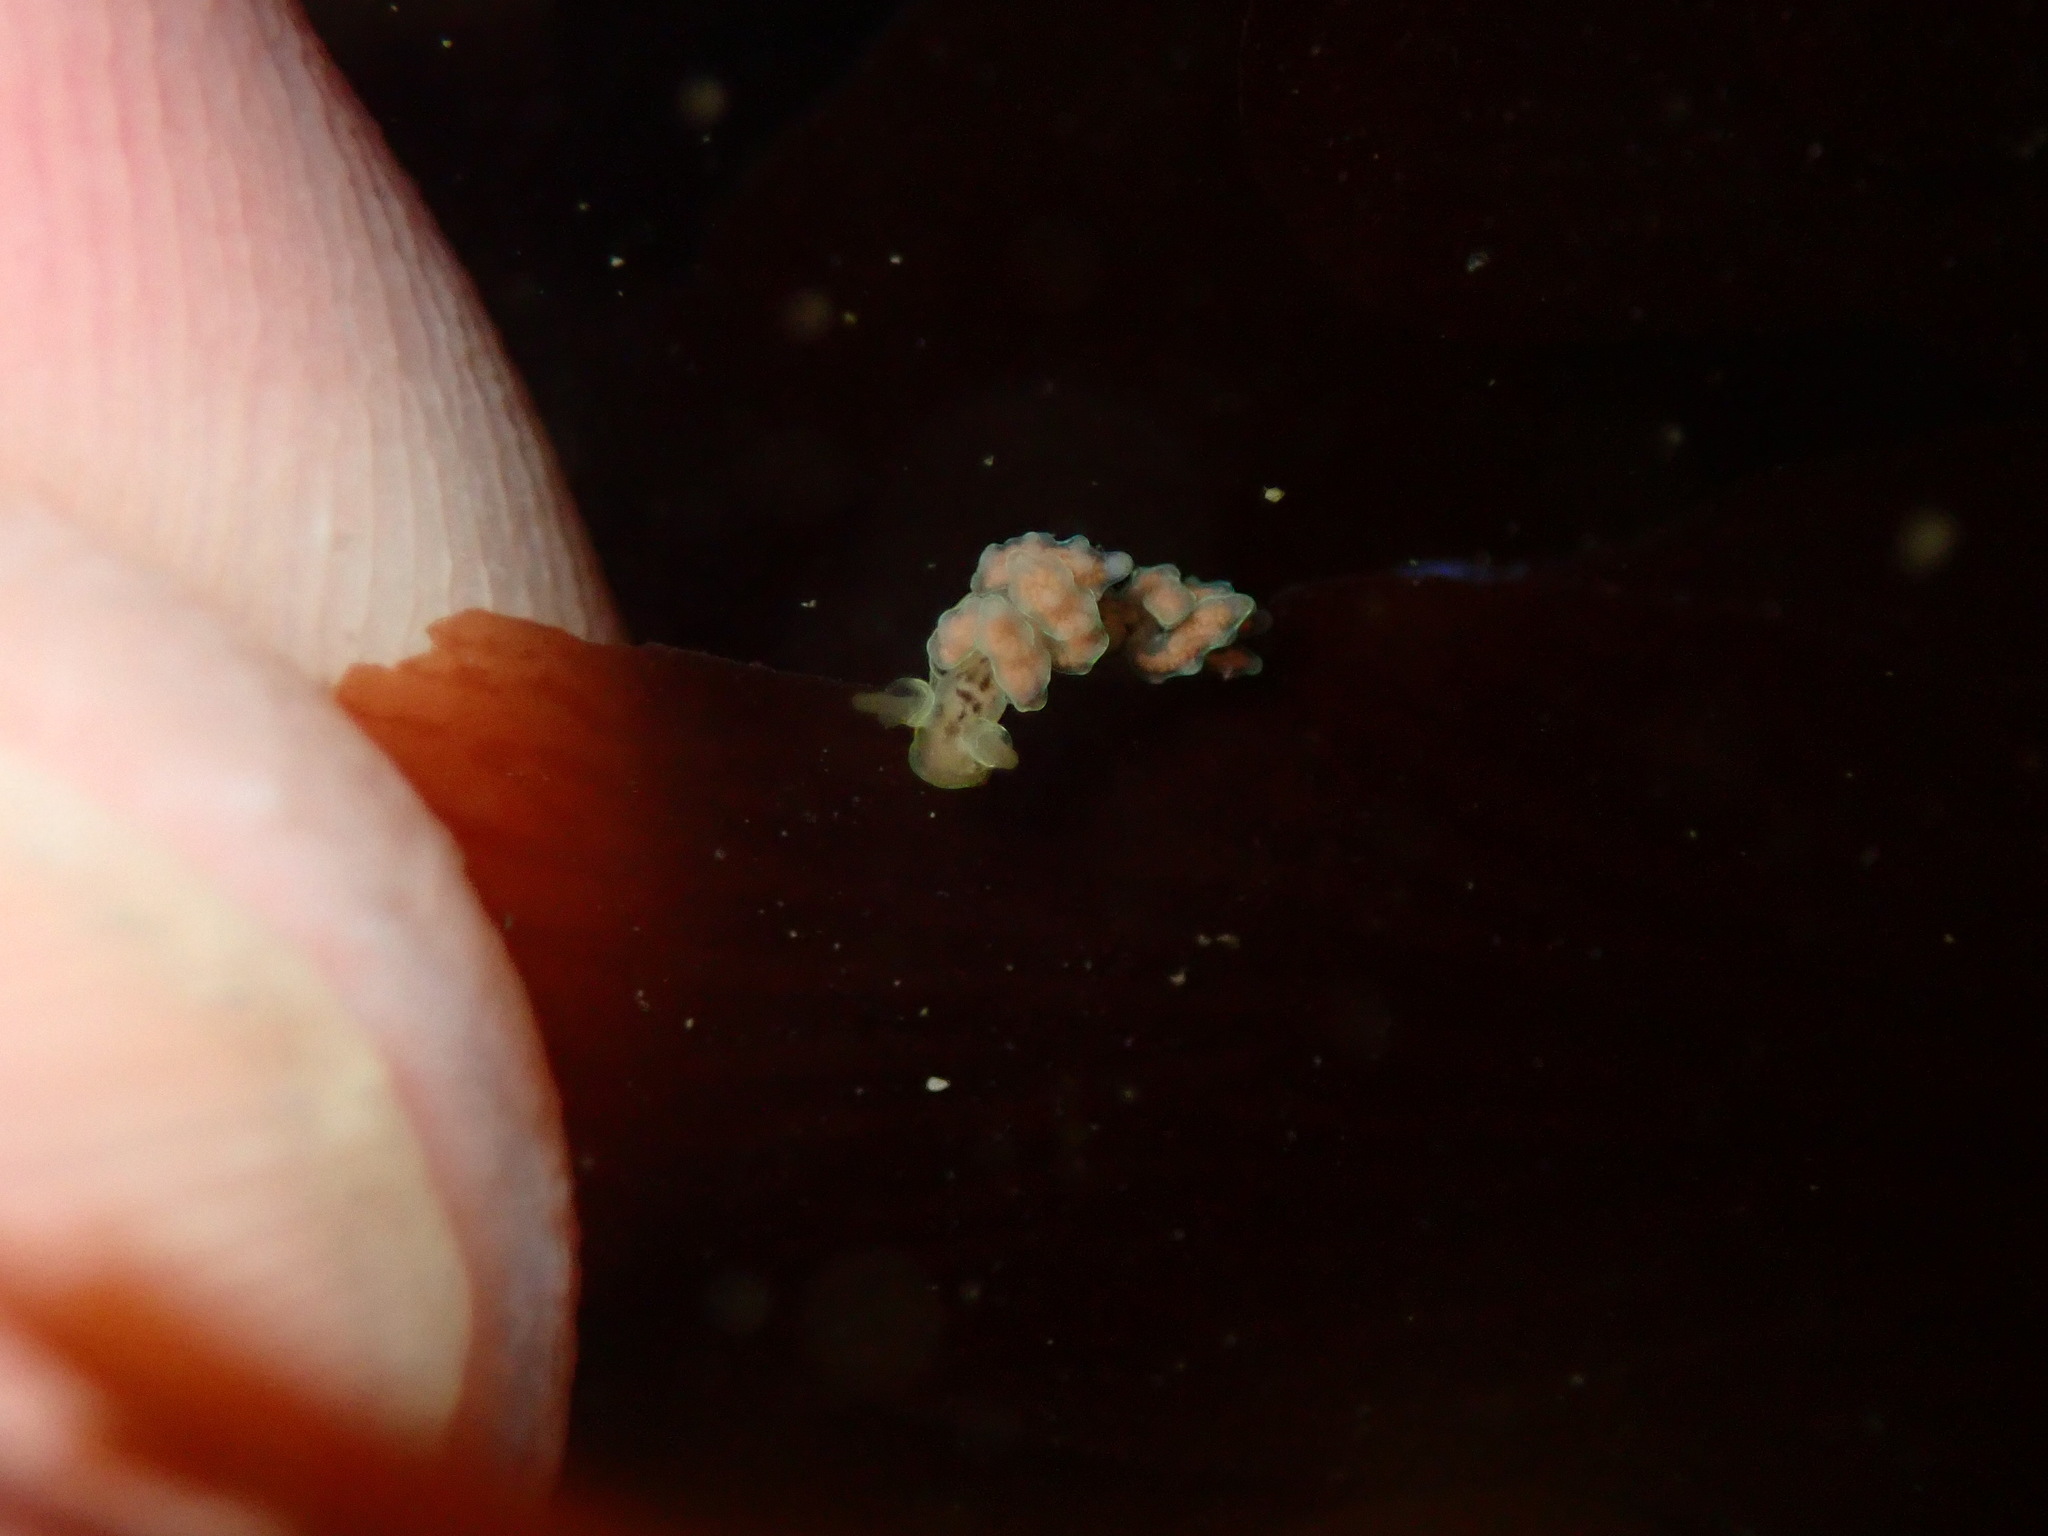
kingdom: Animalia
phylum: Mollusca
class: Gastropoda
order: Nudibranchia
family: Dotidae
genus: Doto
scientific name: Doto columbiana
